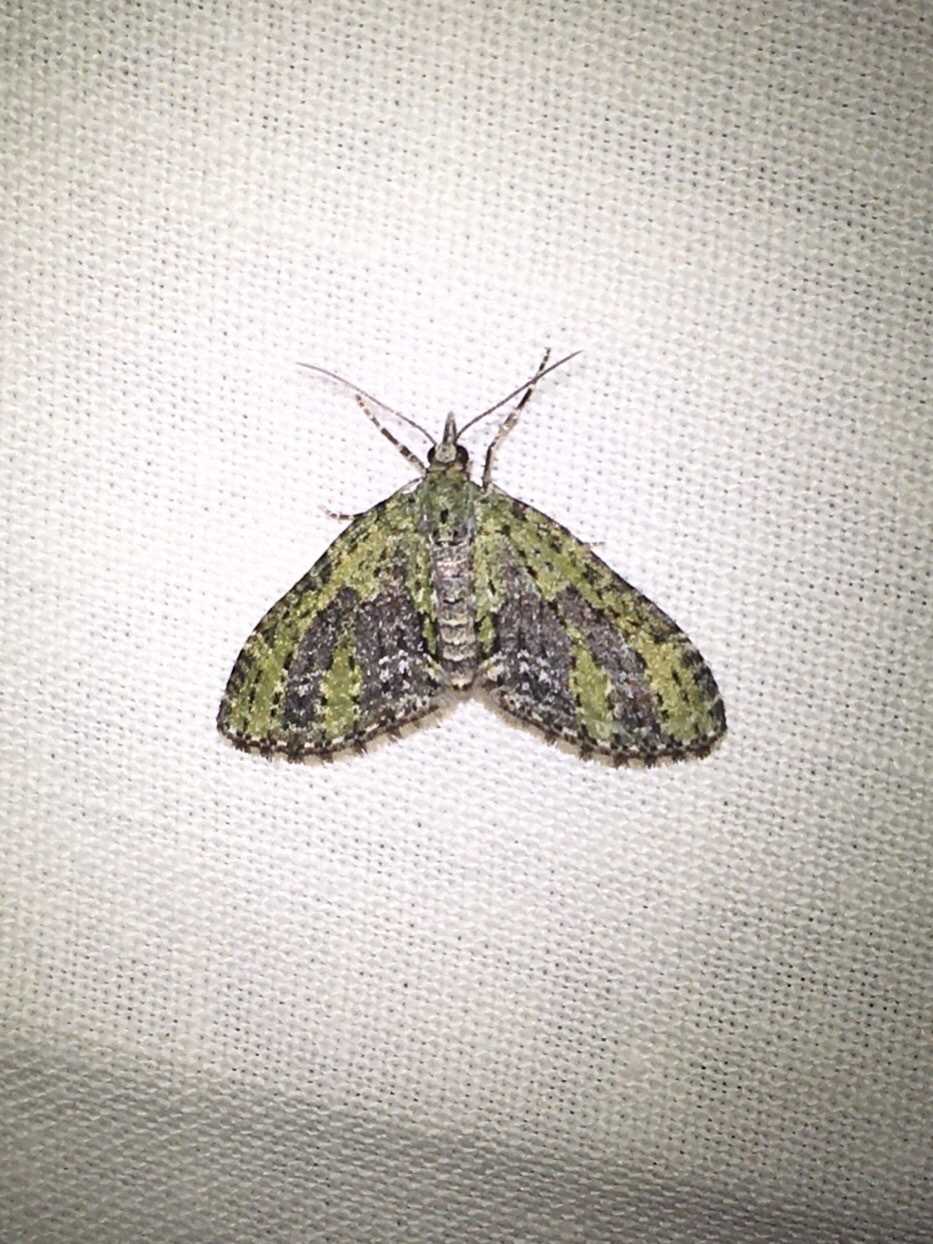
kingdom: Animalia
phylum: Arthropoda
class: Insecta
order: Lepidoptera
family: Geometridae
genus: Acasis
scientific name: Acasis viridata
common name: Olive-and-black carpet moth
